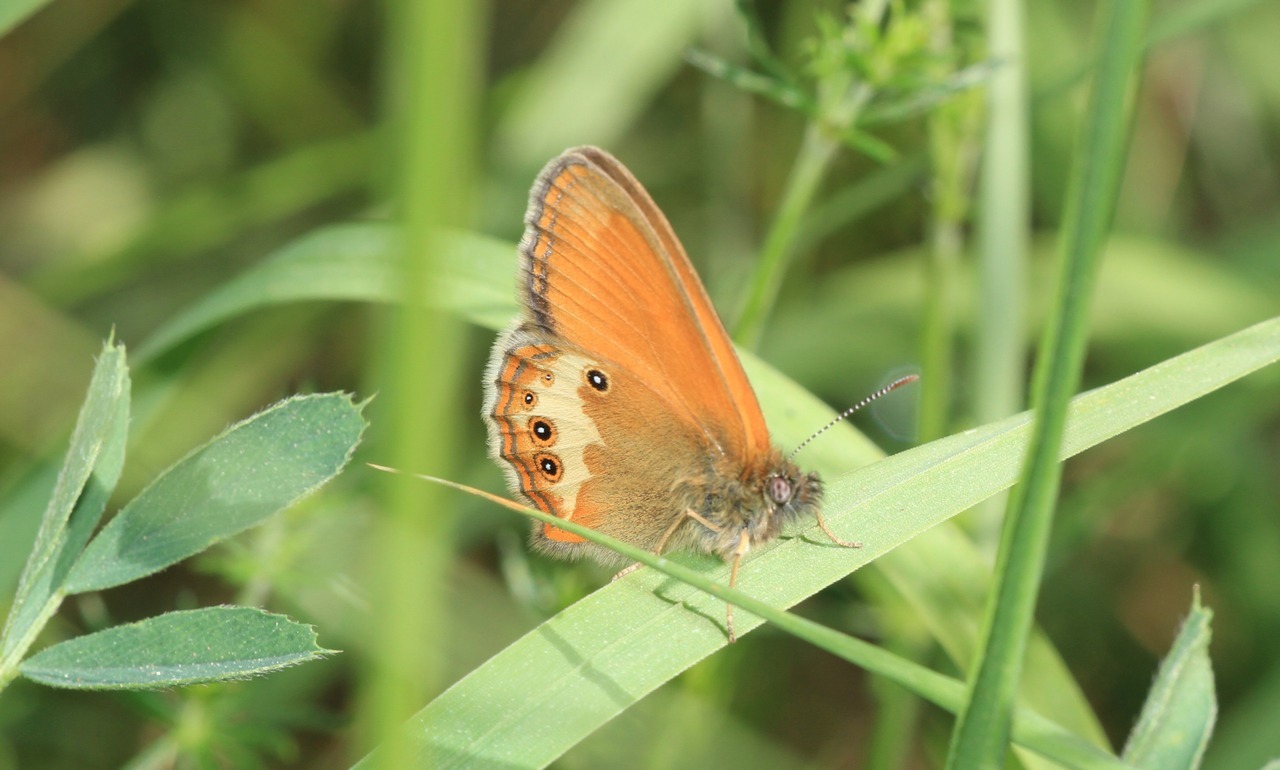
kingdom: Animalia
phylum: Arthropoda
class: Insecta
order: Lepidoptera
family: Nymphalidae
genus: Coenonympha
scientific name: Coenonympha arcania
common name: Pearly heath
